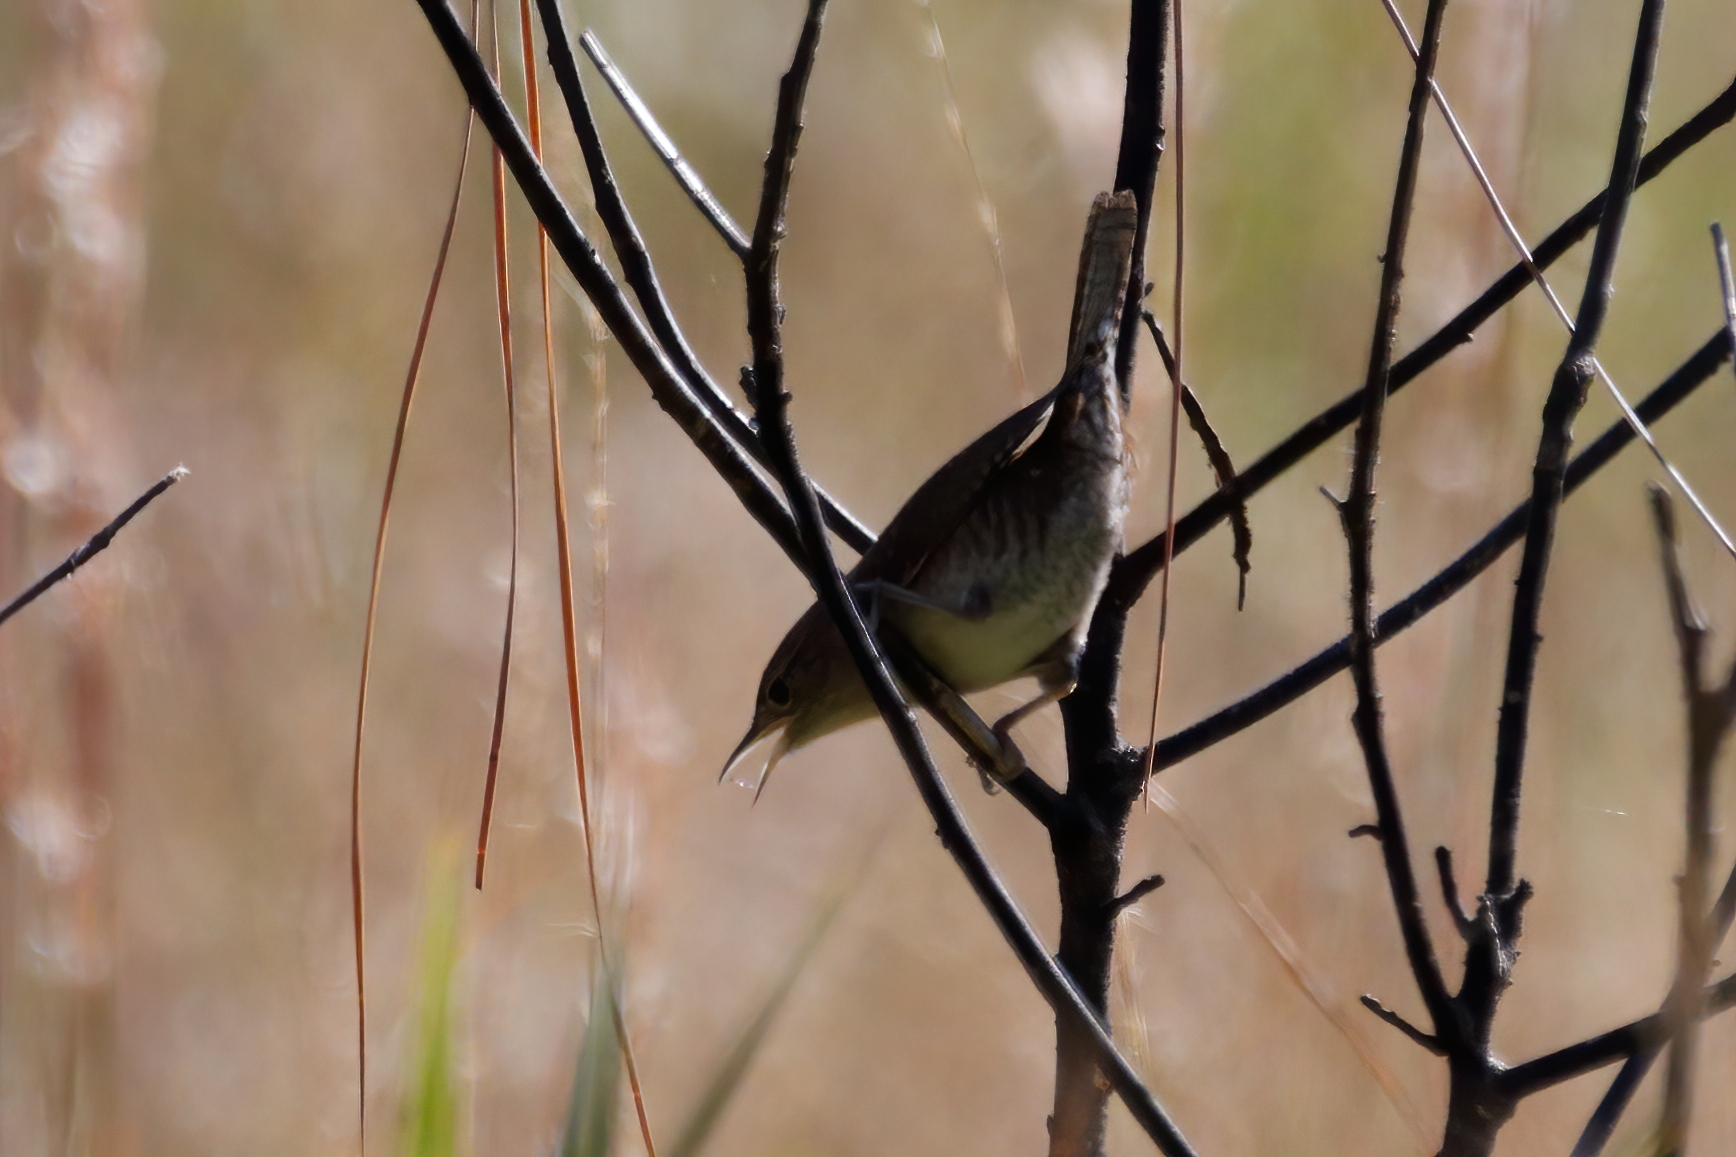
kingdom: Animalia
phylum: Chordata
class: Aves
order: Passeriformes
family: Troglodytidae
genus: Troglodytes
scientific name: Troglodytes aedon
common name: House wren
